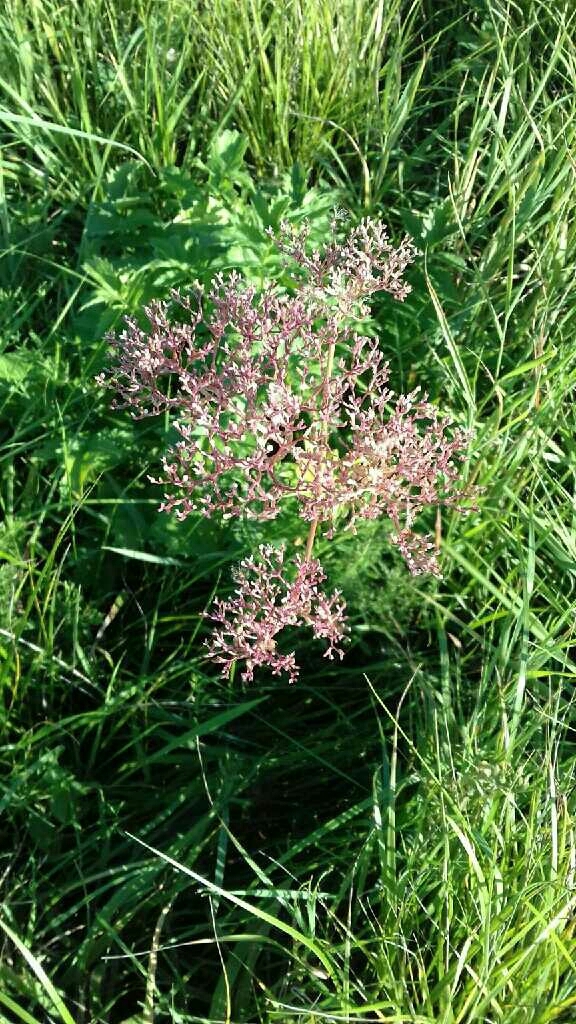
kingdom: Plantae
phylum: Tracheophyta
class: Magnoliopsida
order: Dipsacales
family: Caprifoliaceae
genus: Valeriana
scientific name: Valeriana officinalis
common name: Common valerian
